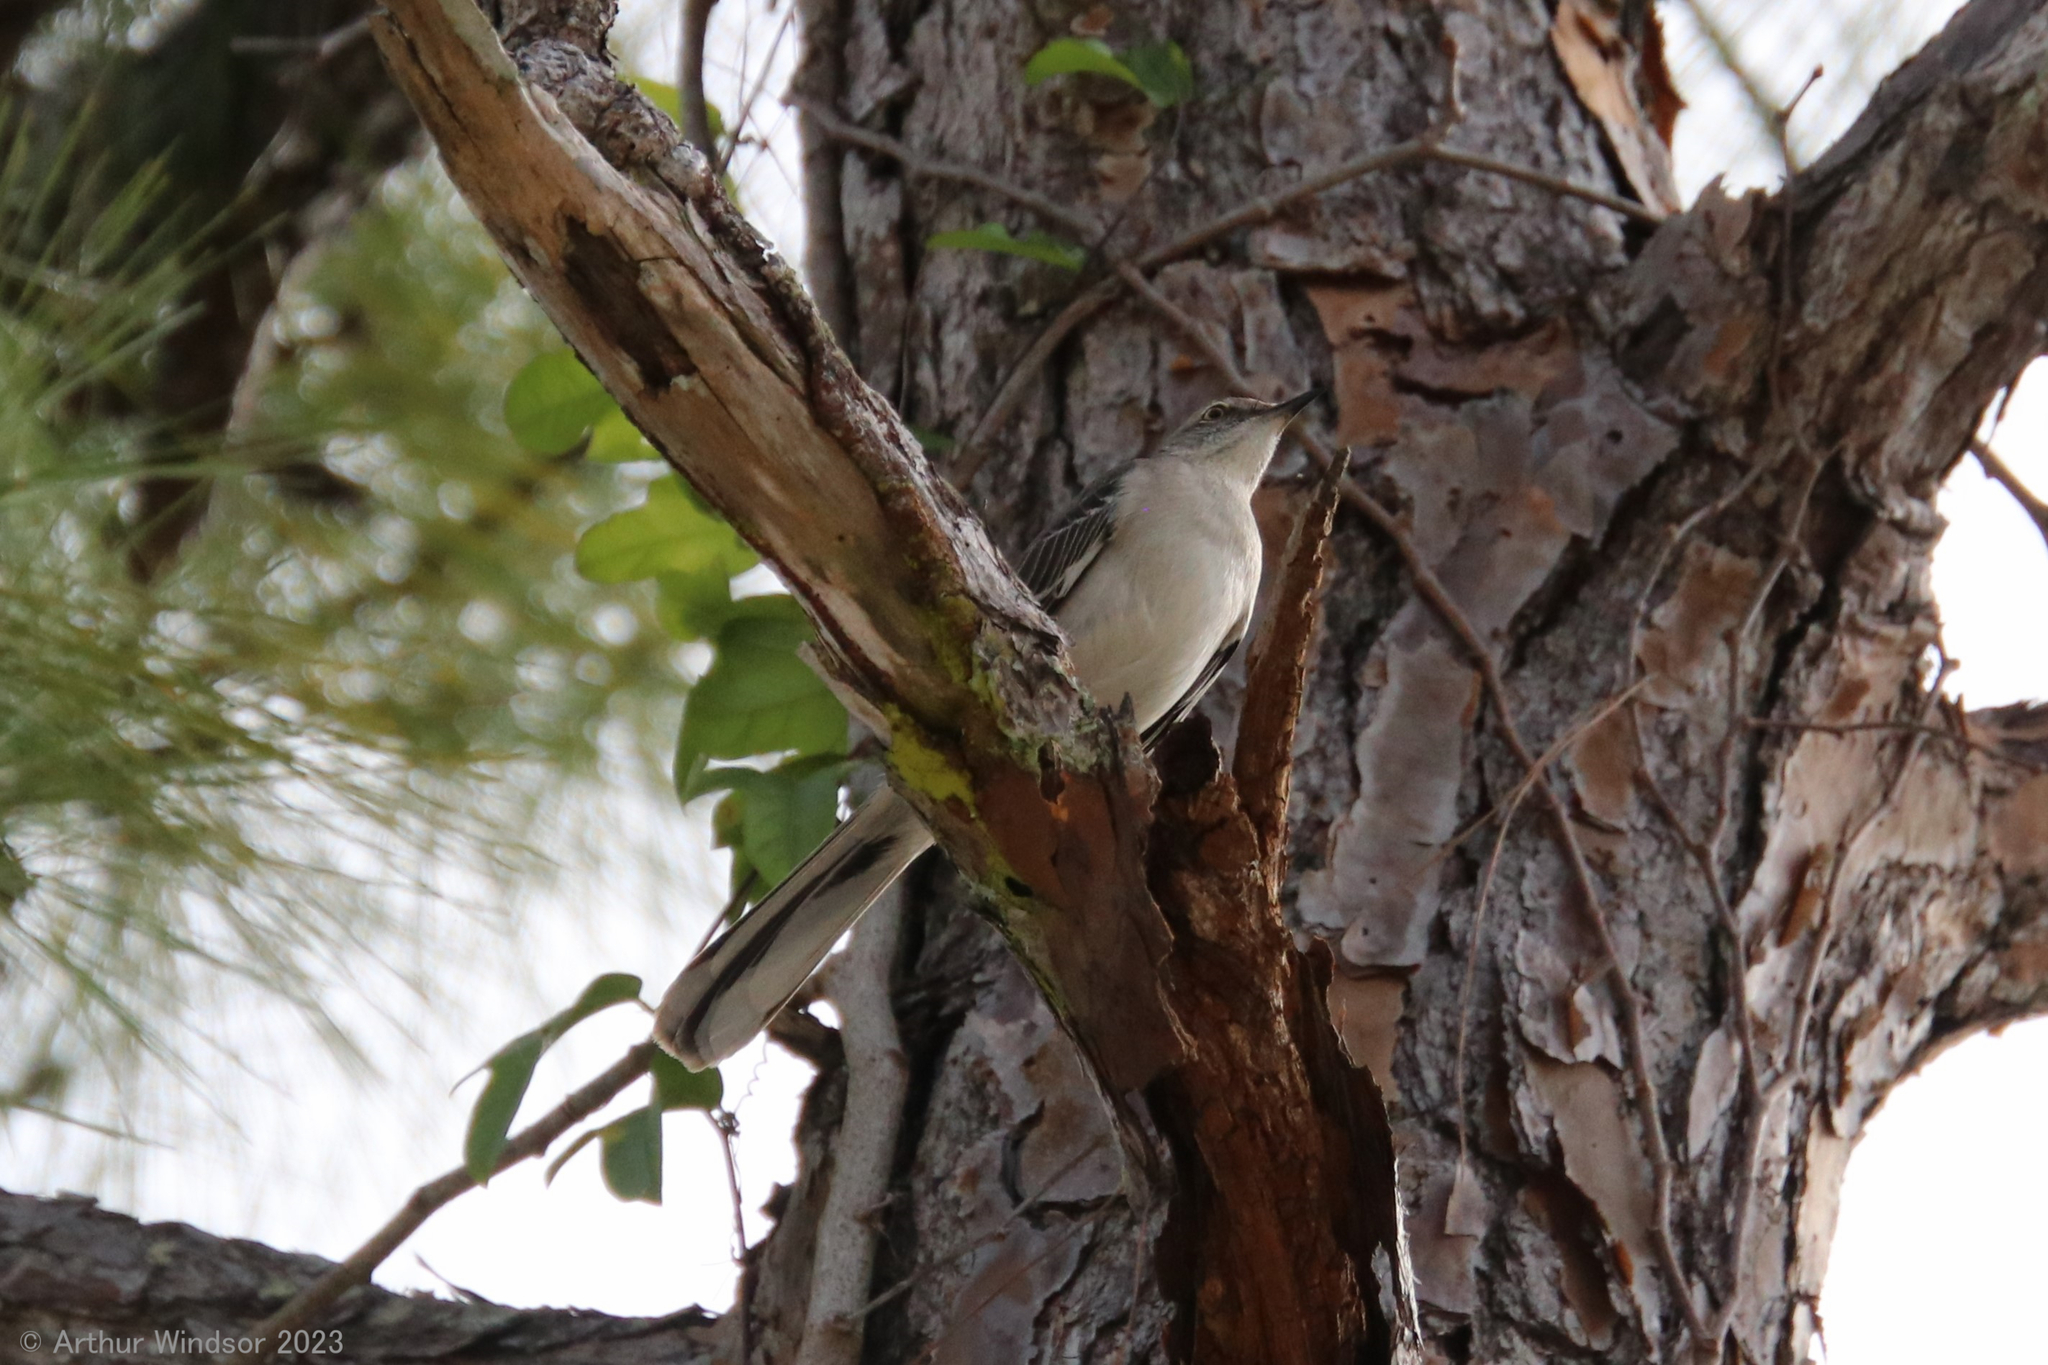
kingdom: Animalia
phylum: Chordata
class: Aves
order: Passeriformes
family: Mimidae
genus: Mimus
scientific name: Mimus polyglottos
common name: Northern mockingbird
